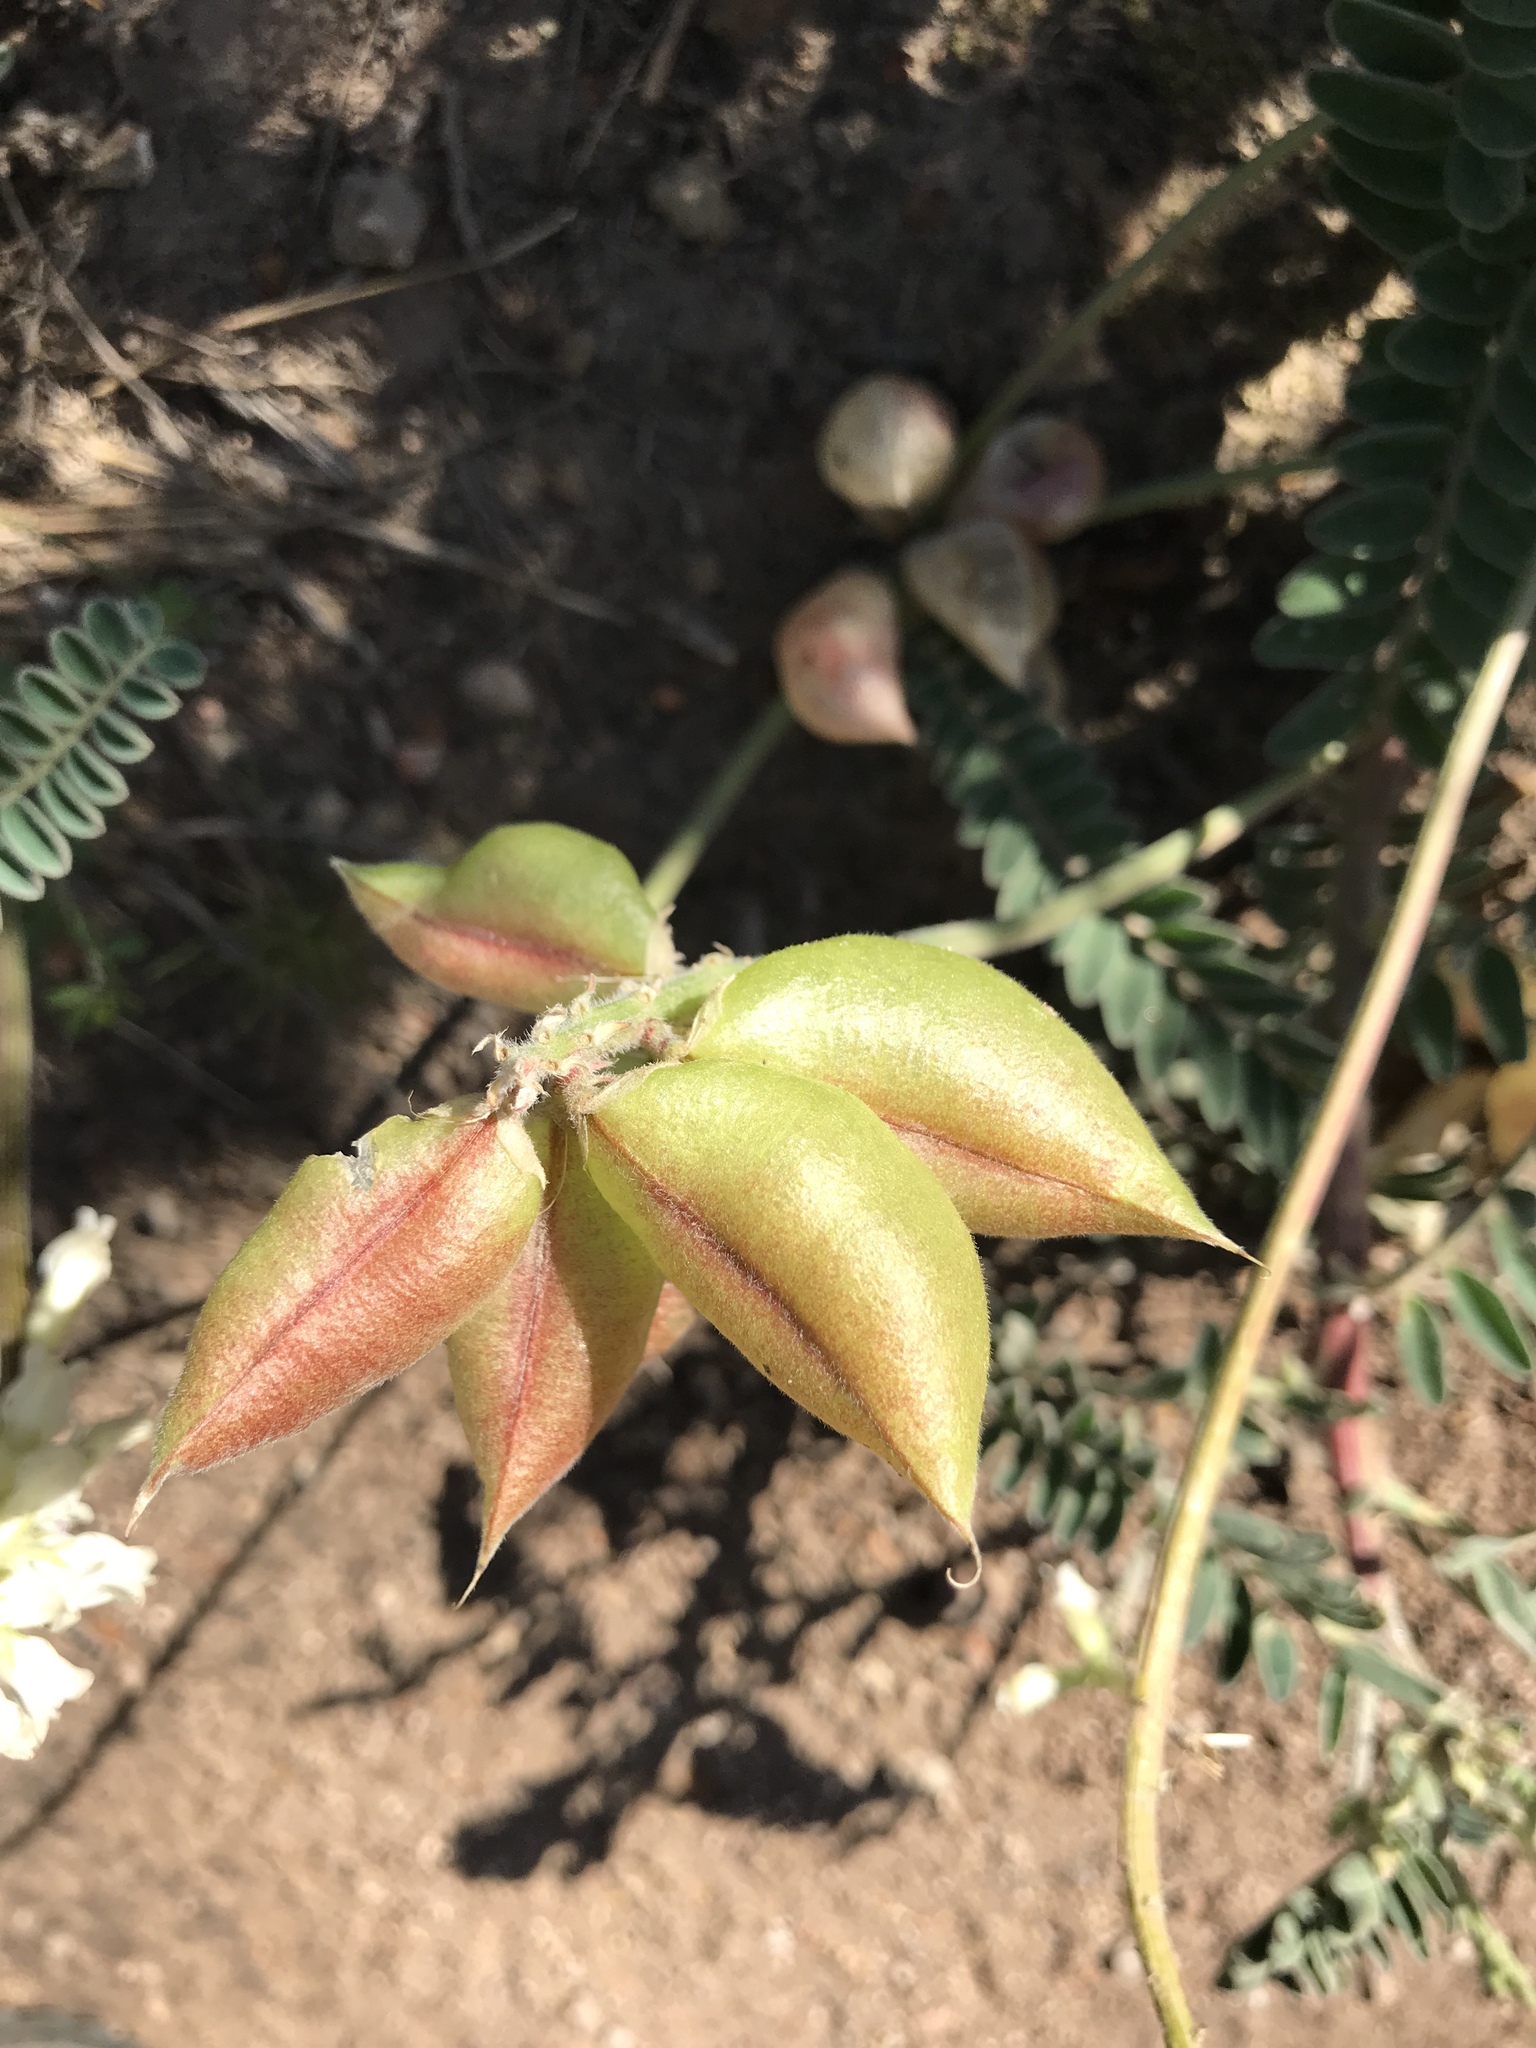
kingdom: Plantae
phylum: Tracheophyta
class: Magnoliopsida
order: Fabales
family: Fabaceae
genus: Astragalus
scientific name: Astragalus nuttallii
